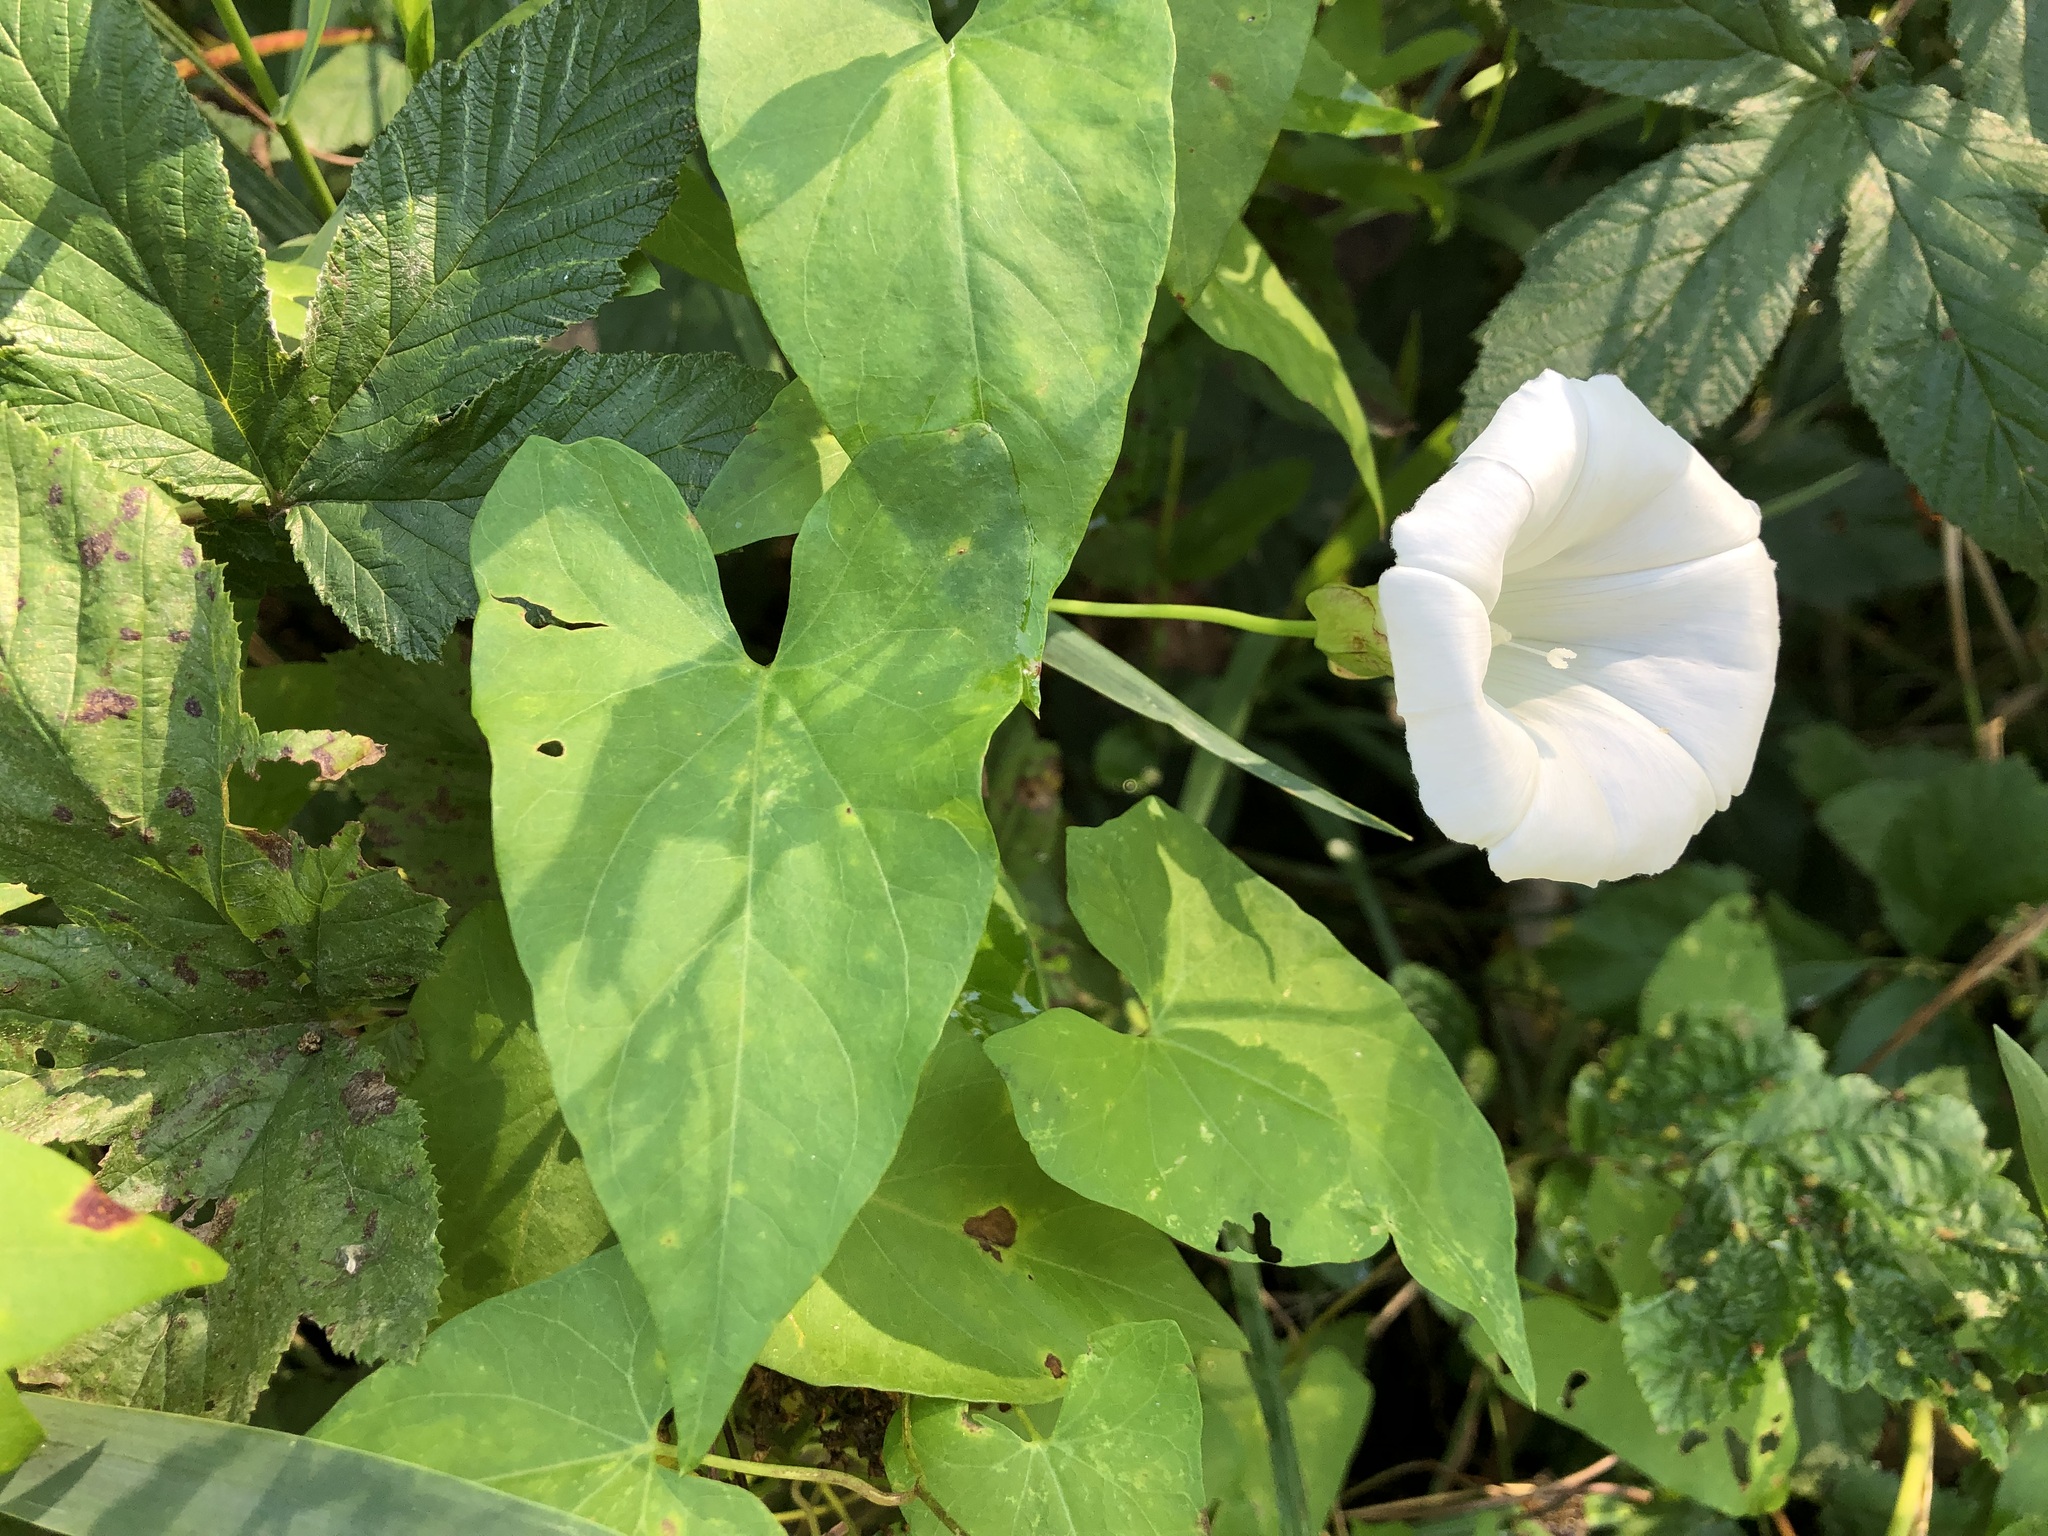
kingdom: Plantae
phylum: Tracheophyta
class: Magnoliopsida
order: Solanales
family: Convolvulaceae
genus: Calystegia
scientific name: Calystegia sepium
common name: Hedge bindweed
